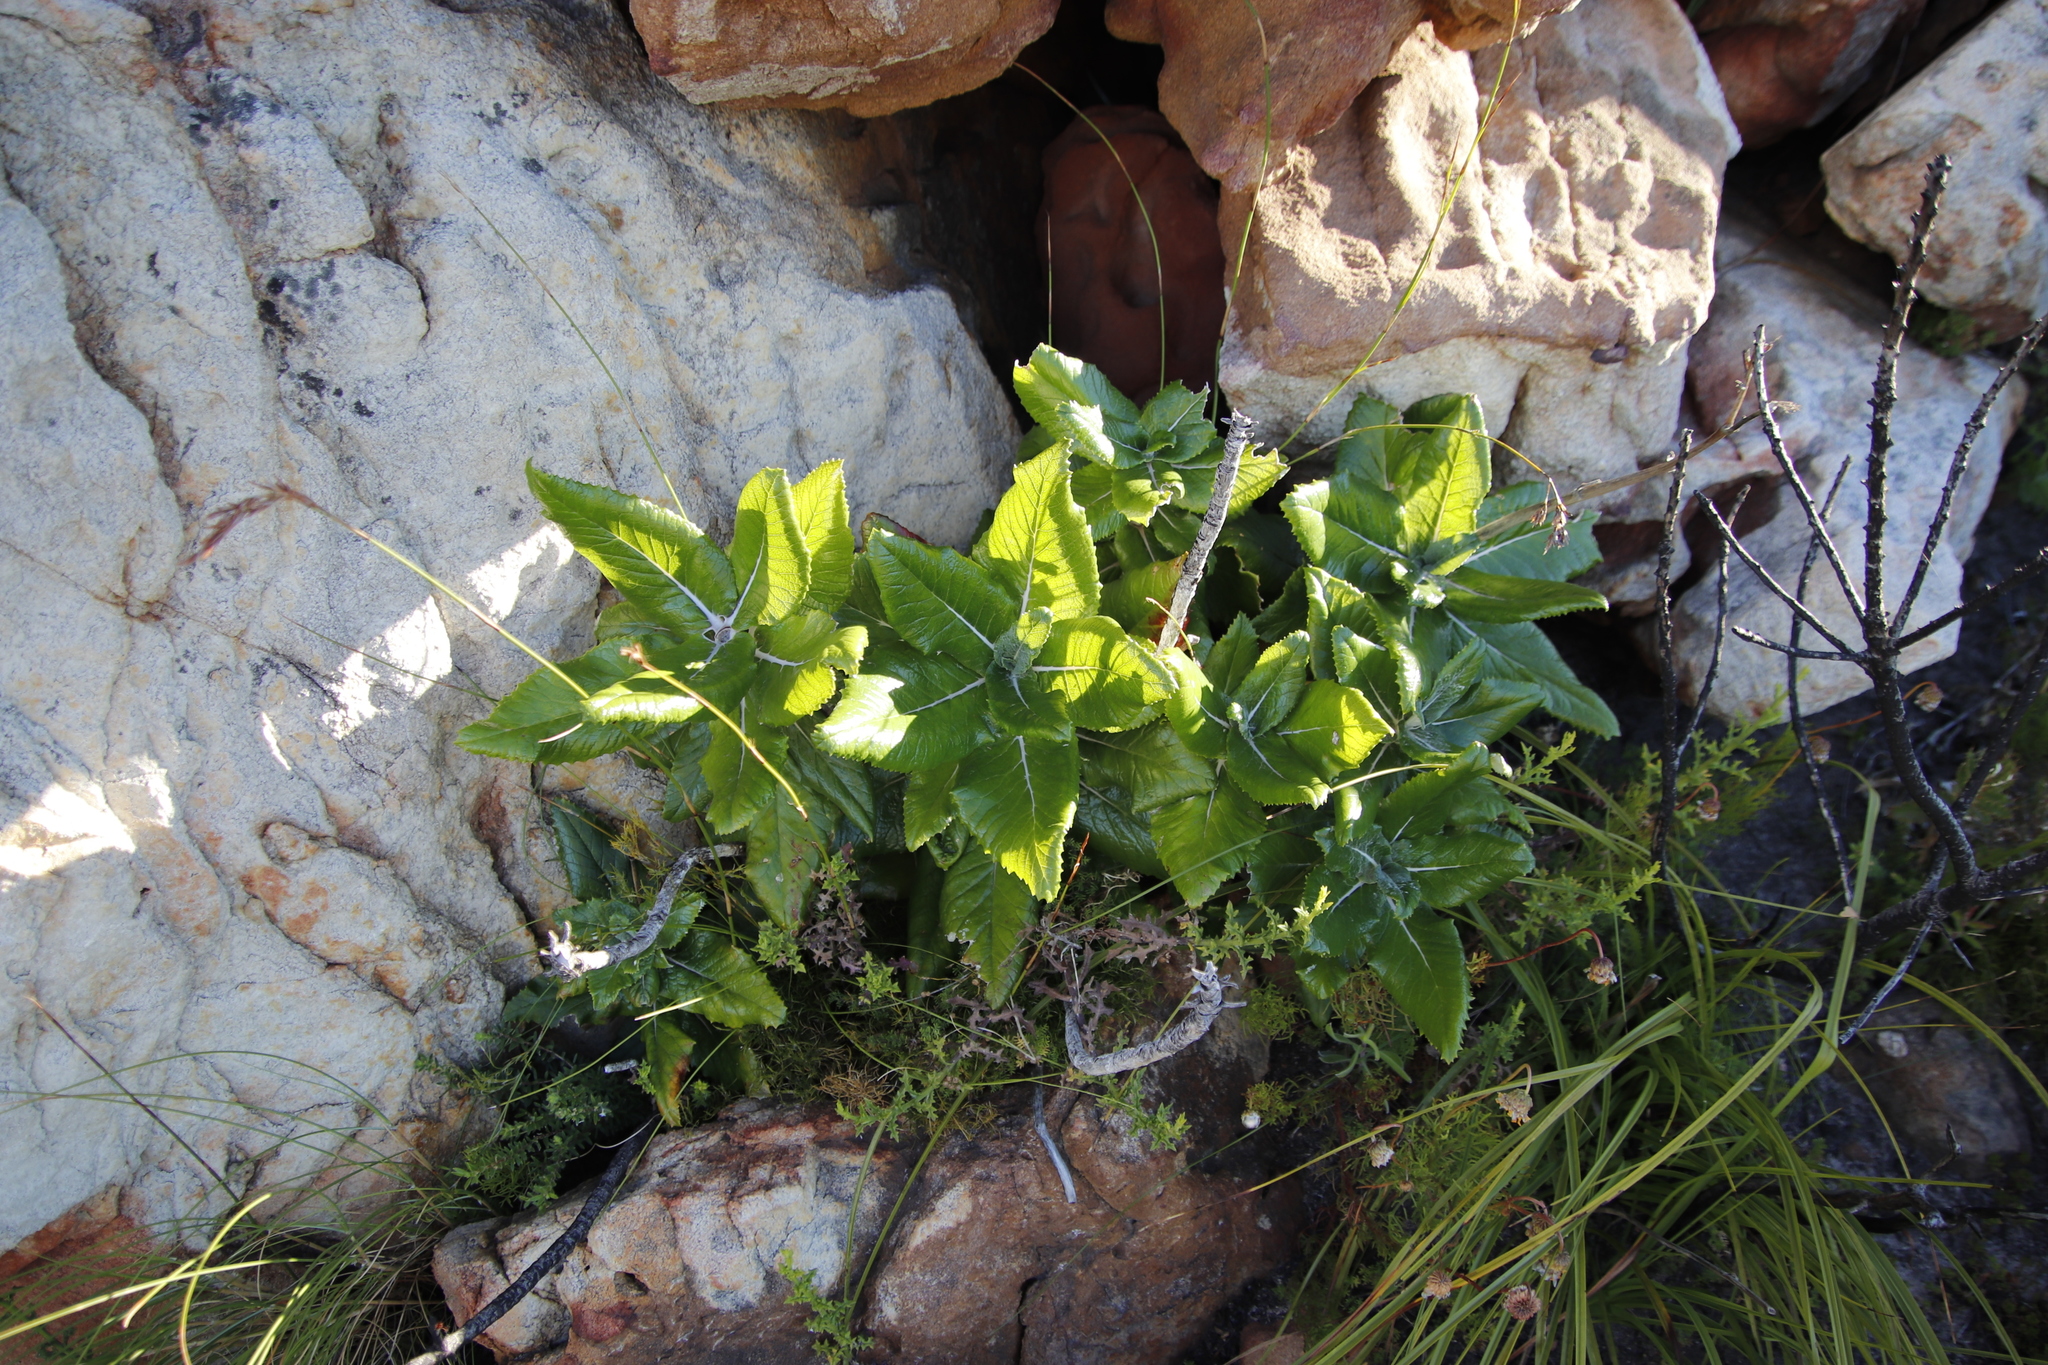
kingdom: Plantae
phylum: Tracheophyta
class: Magnoliopsida
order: Apiales
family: Apiaceae
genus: Hermas
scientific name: Hermas villosa
